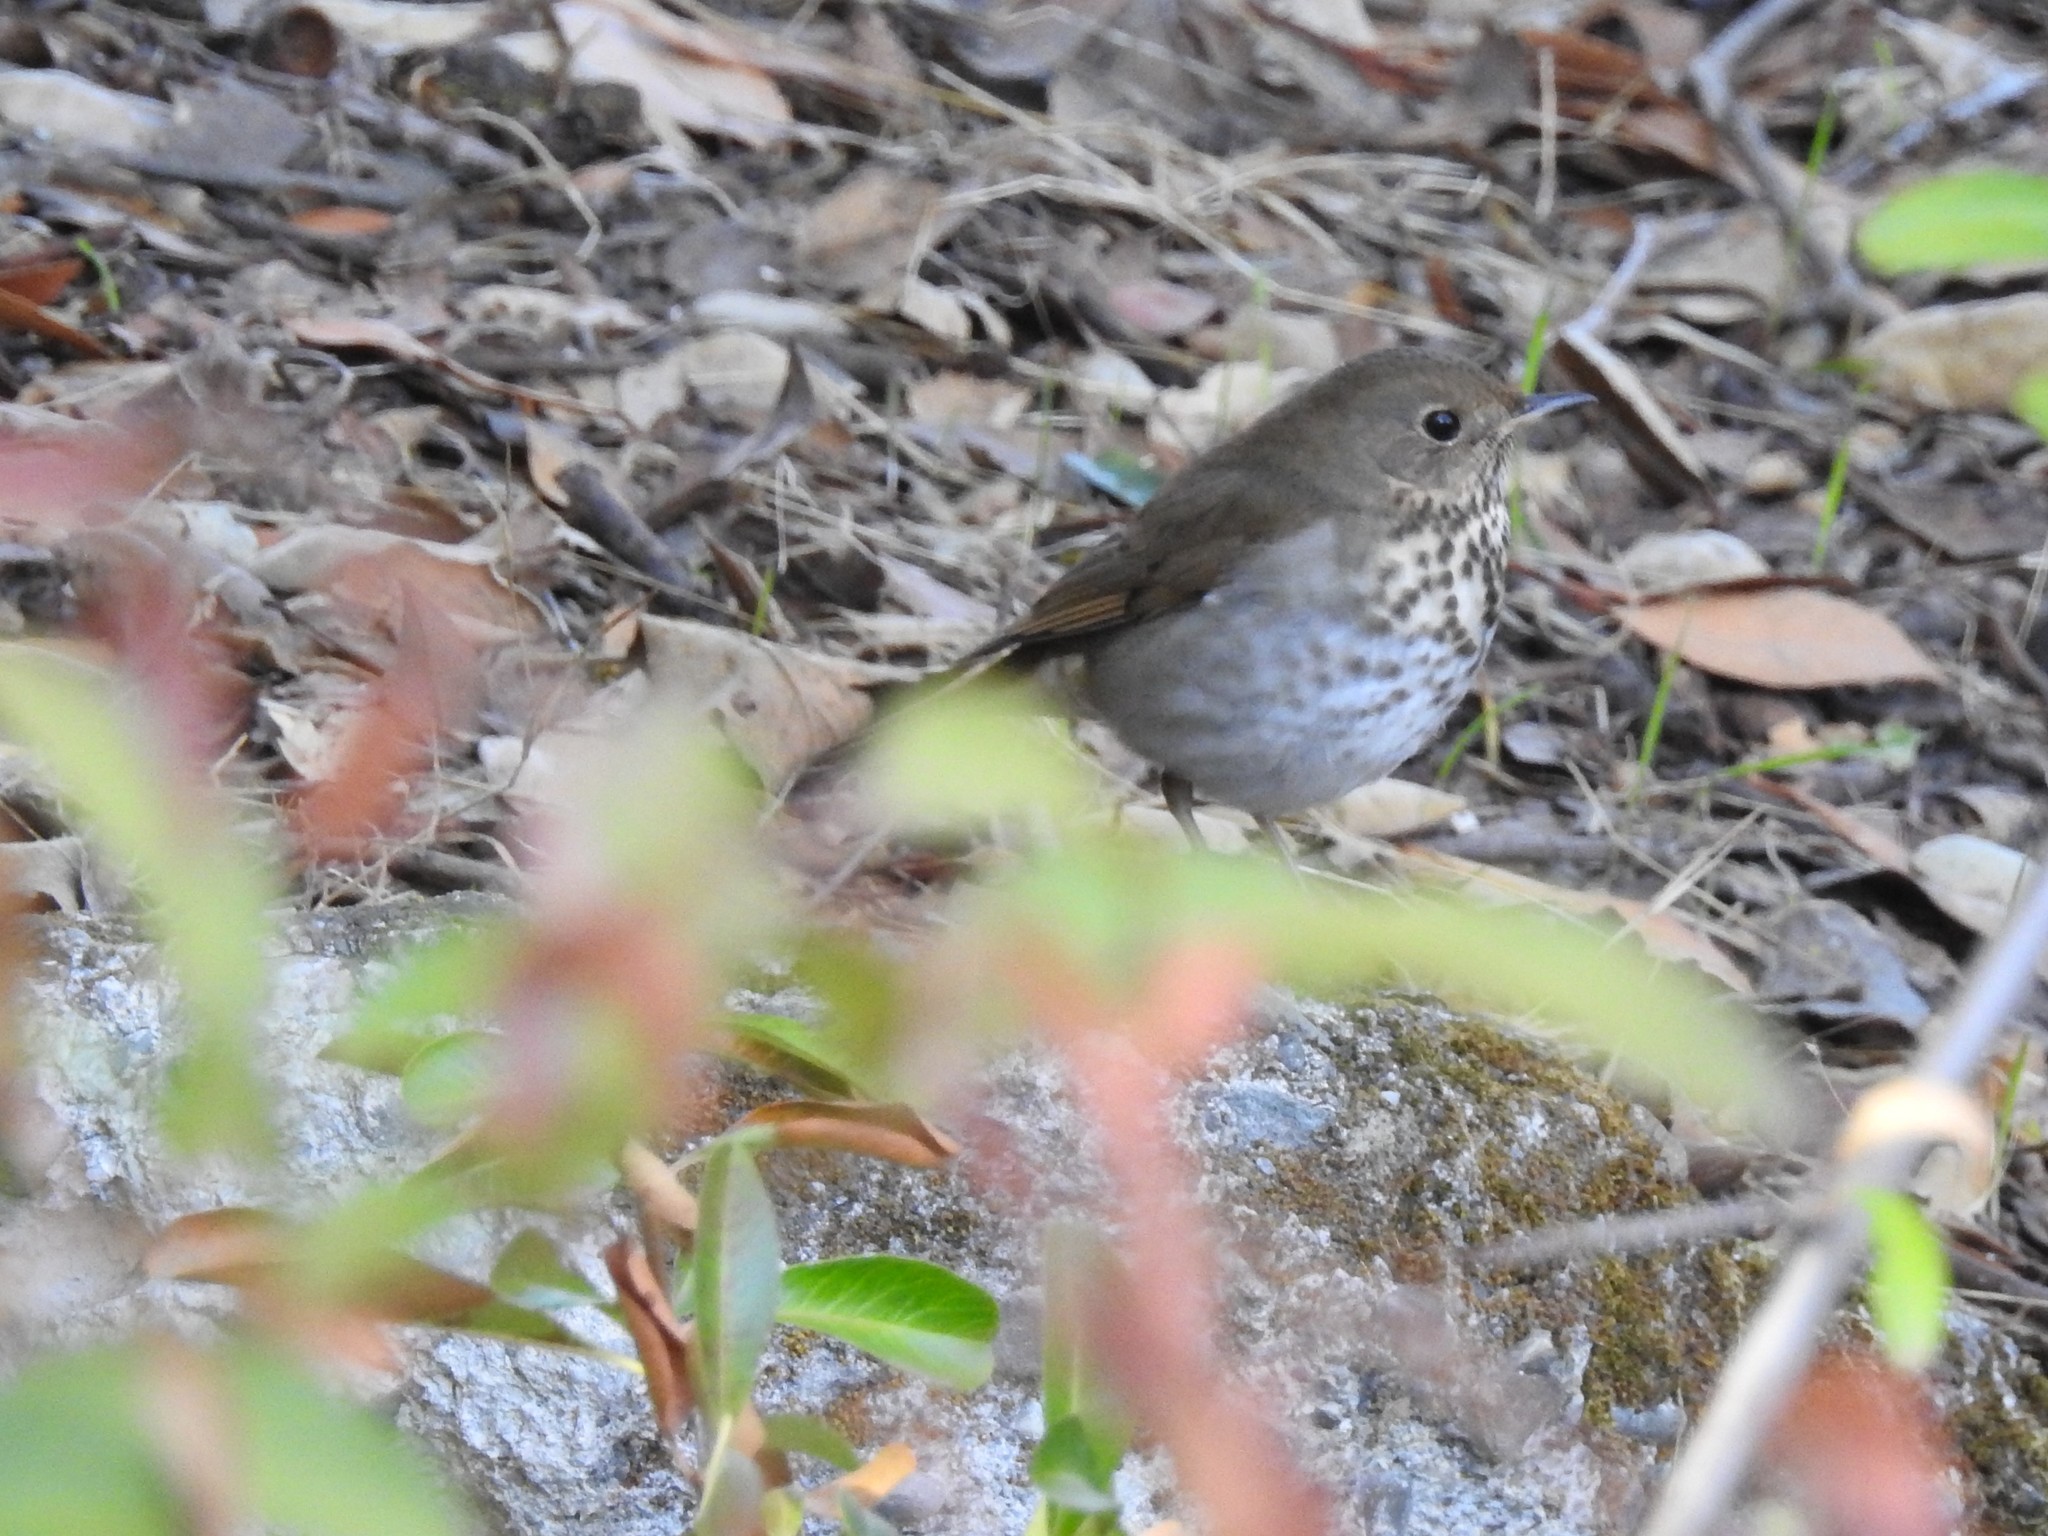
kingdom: Animalia
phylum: Chordata
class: Aves
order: Passeriformes
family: Turdidae
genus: Catharus
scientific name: Catharus guttatus
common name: Hermit thrush
